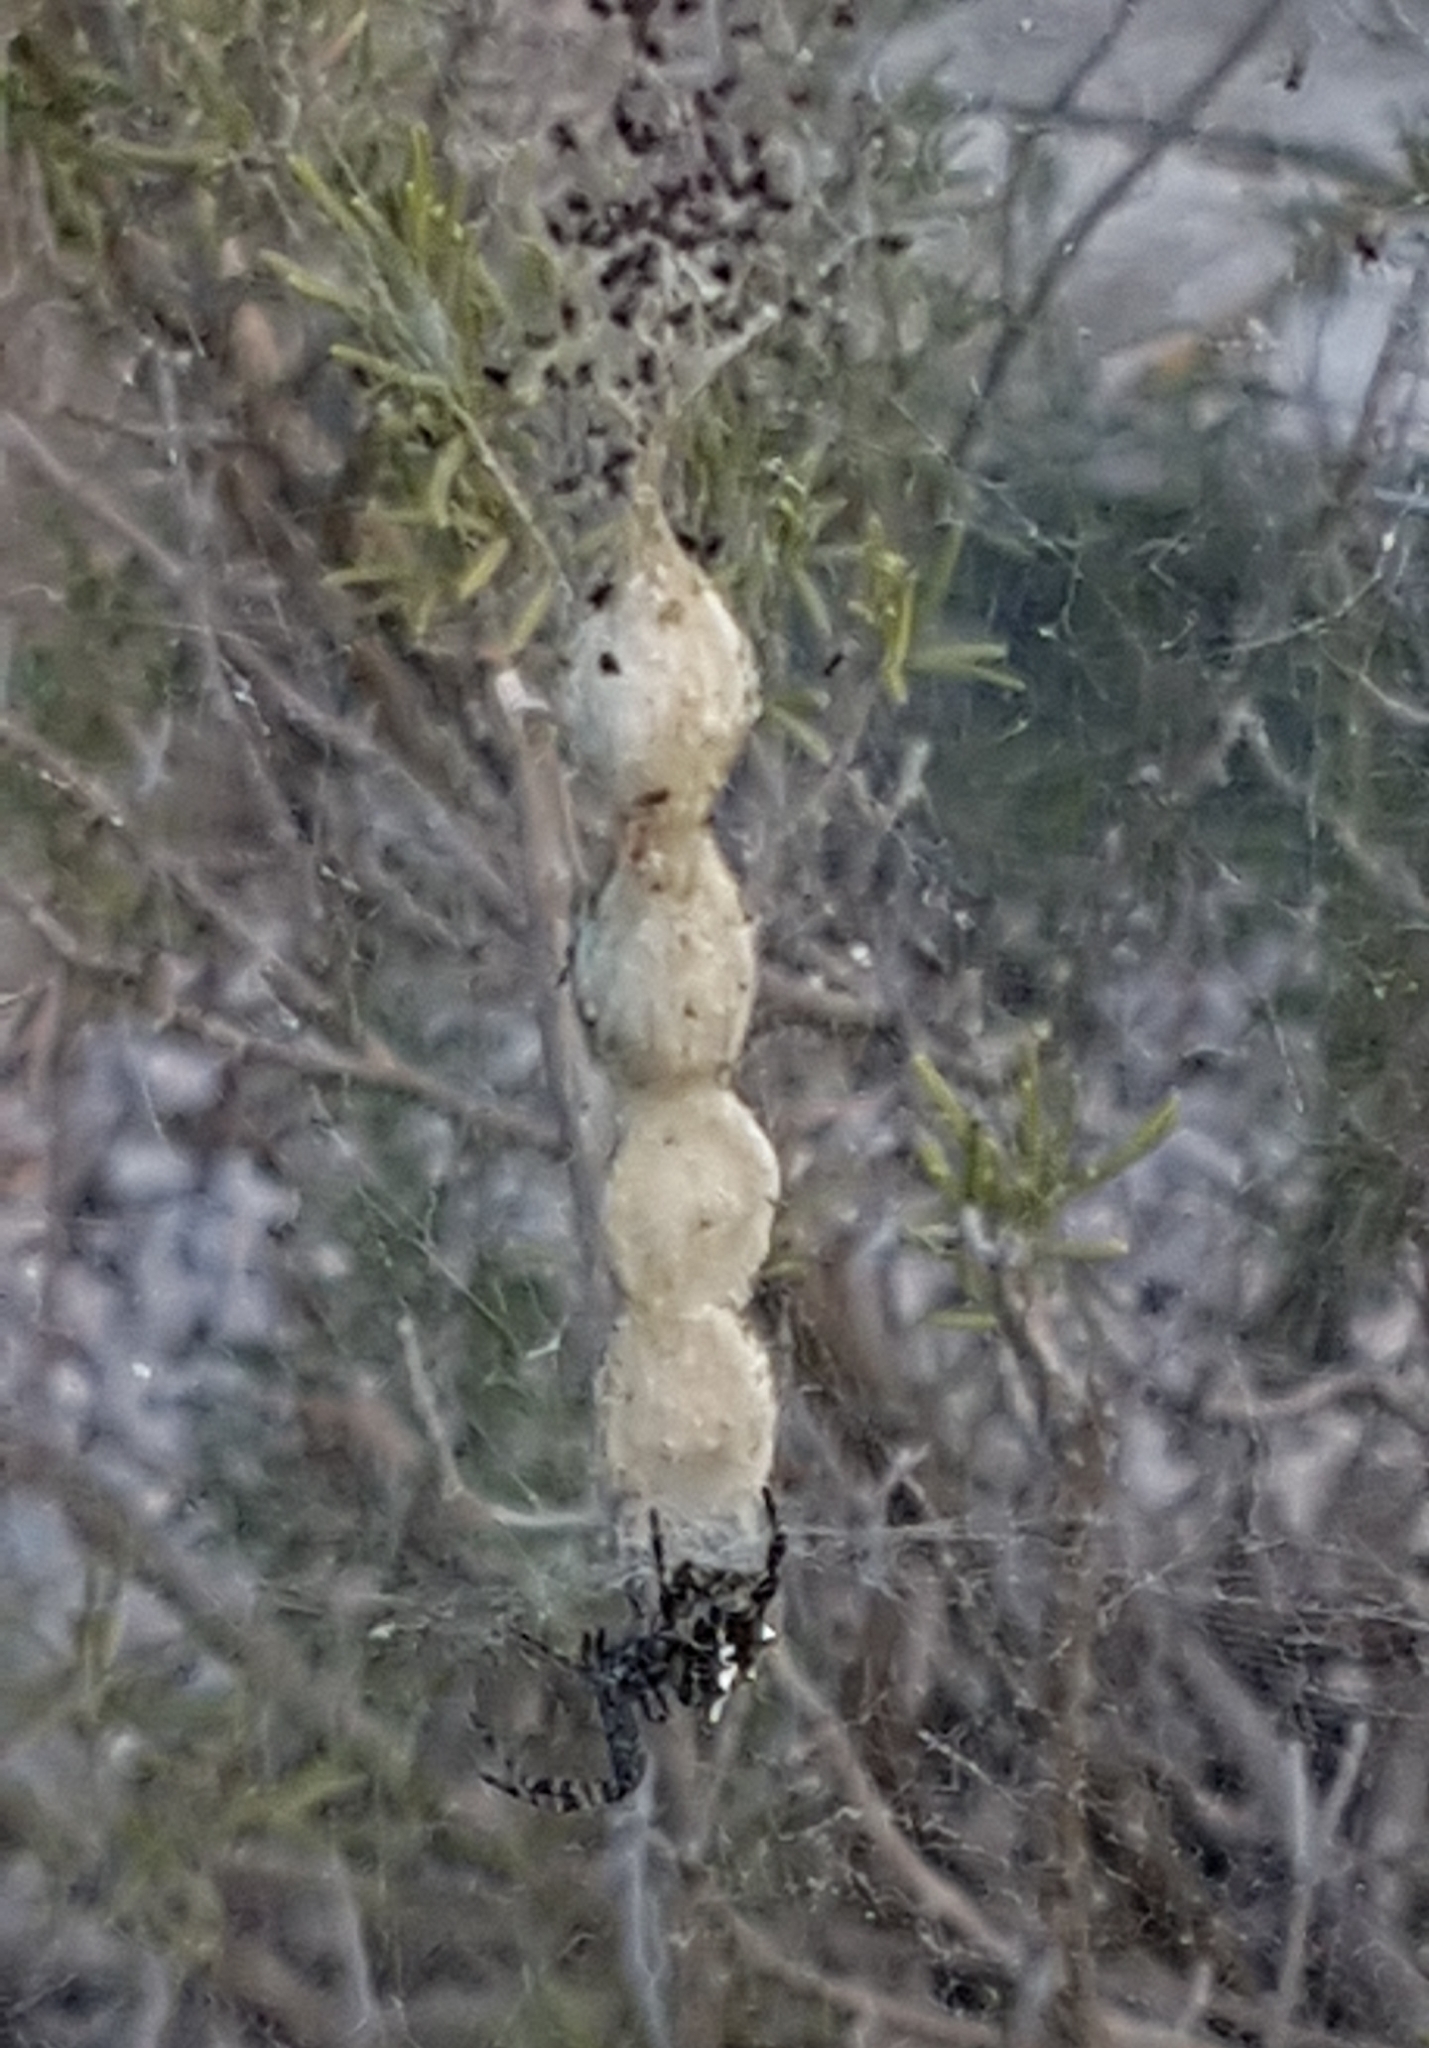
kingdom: Animalia
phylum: Arthropoda
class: Arachnida
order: Araneae
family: Araneidae
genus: Cyrtophora
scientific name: Cyrtophora citricola
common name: Orb weavers
